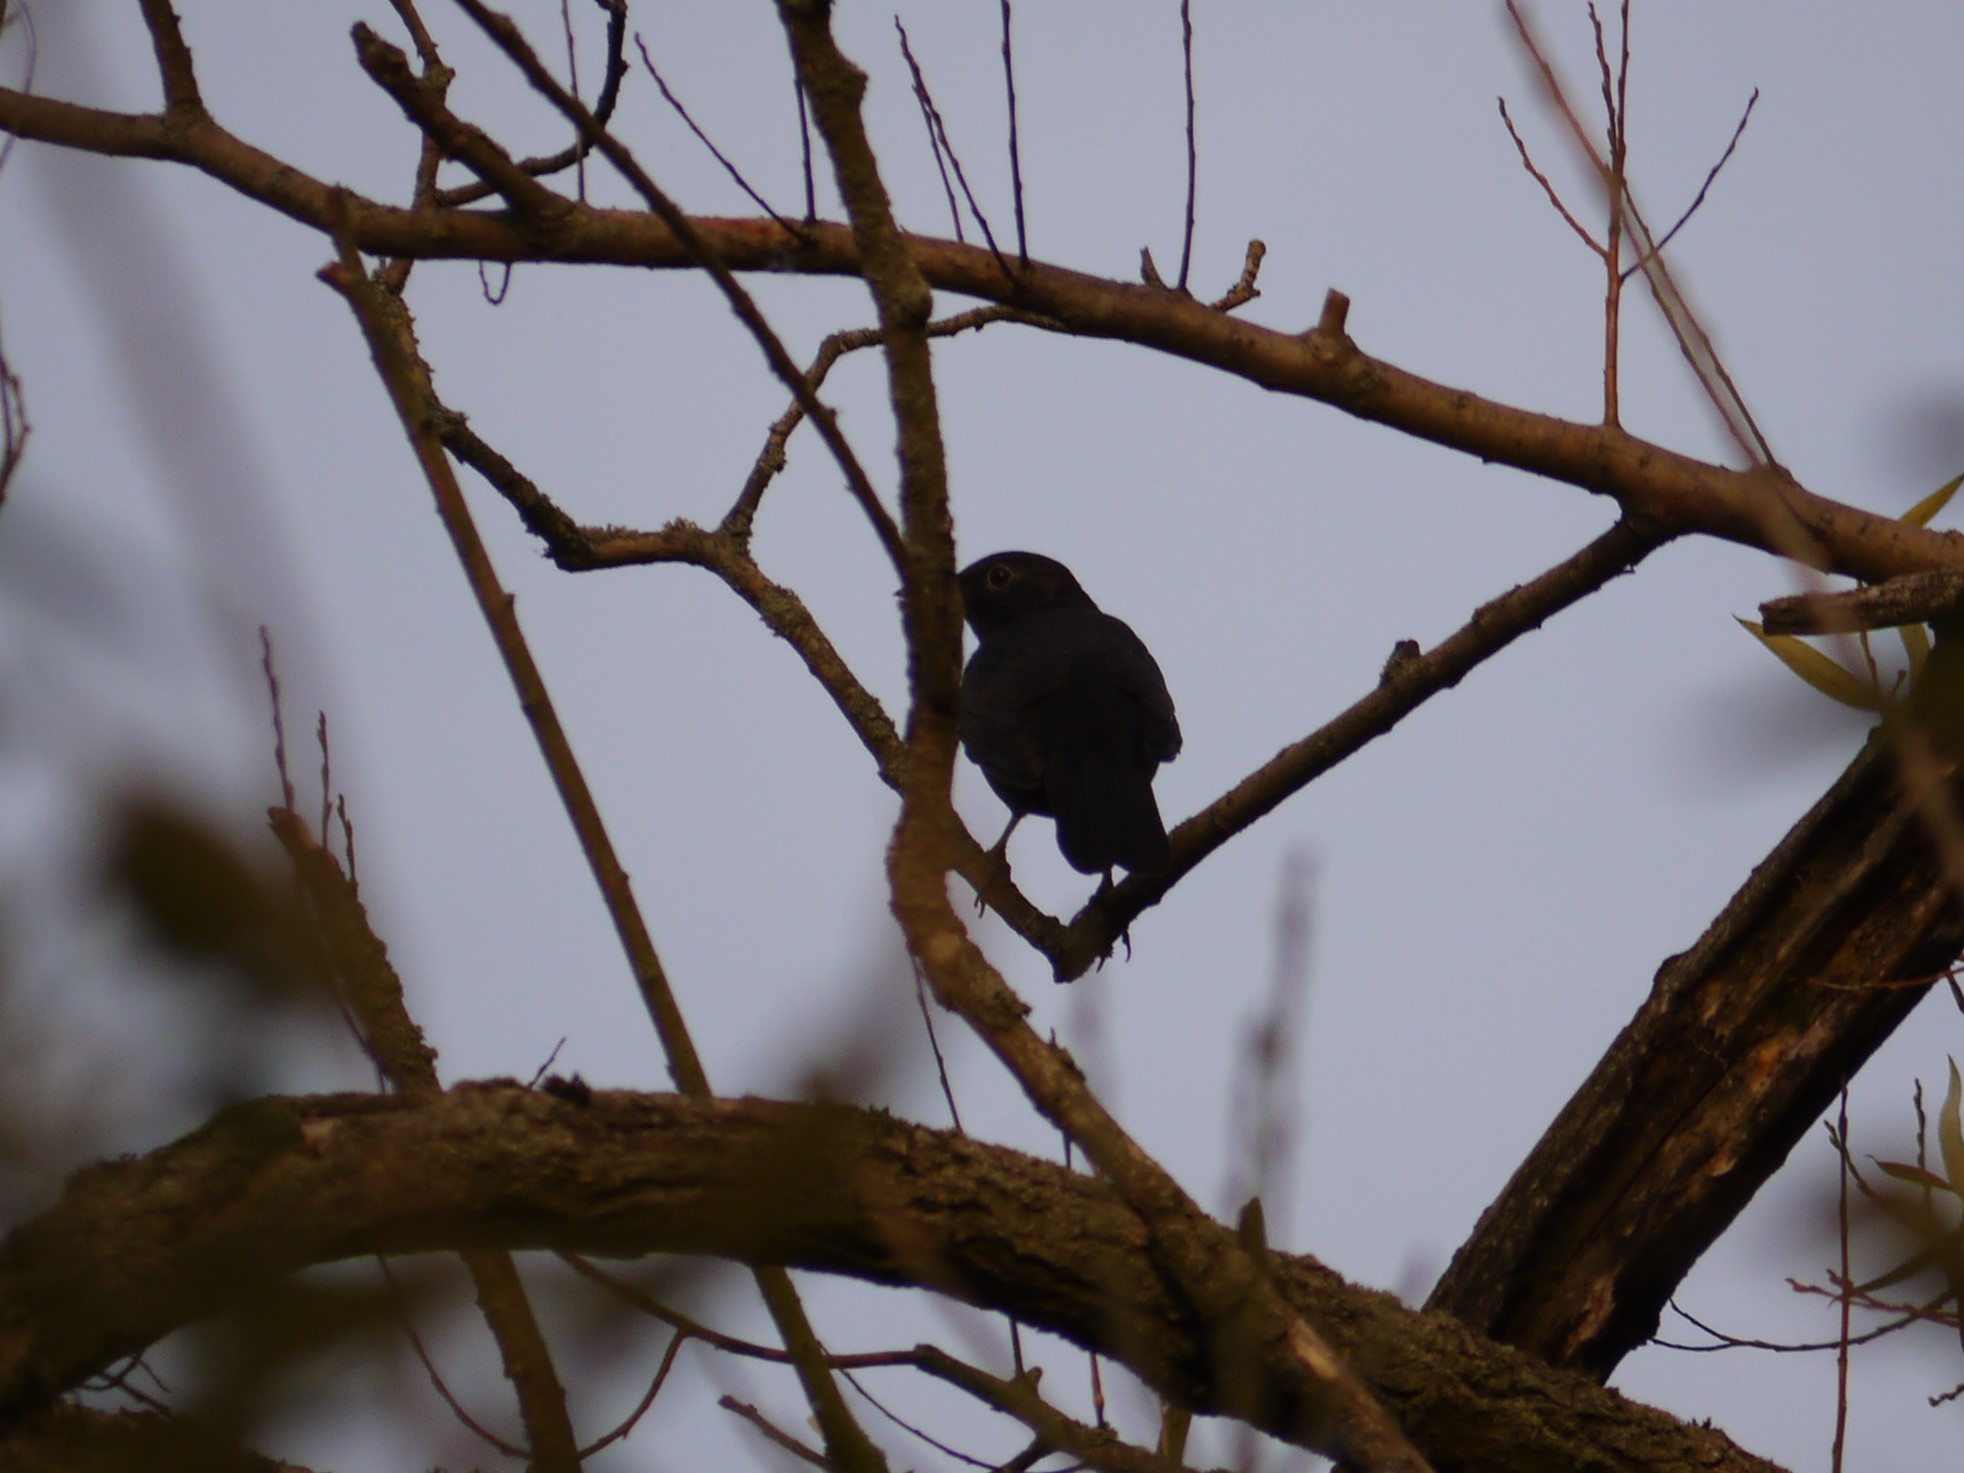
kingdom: Animalia
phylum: Chordata
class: Aves
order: Passeriformes
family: Turdidae
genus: Turdus
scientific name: Turdus merula
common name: Common blackbird
